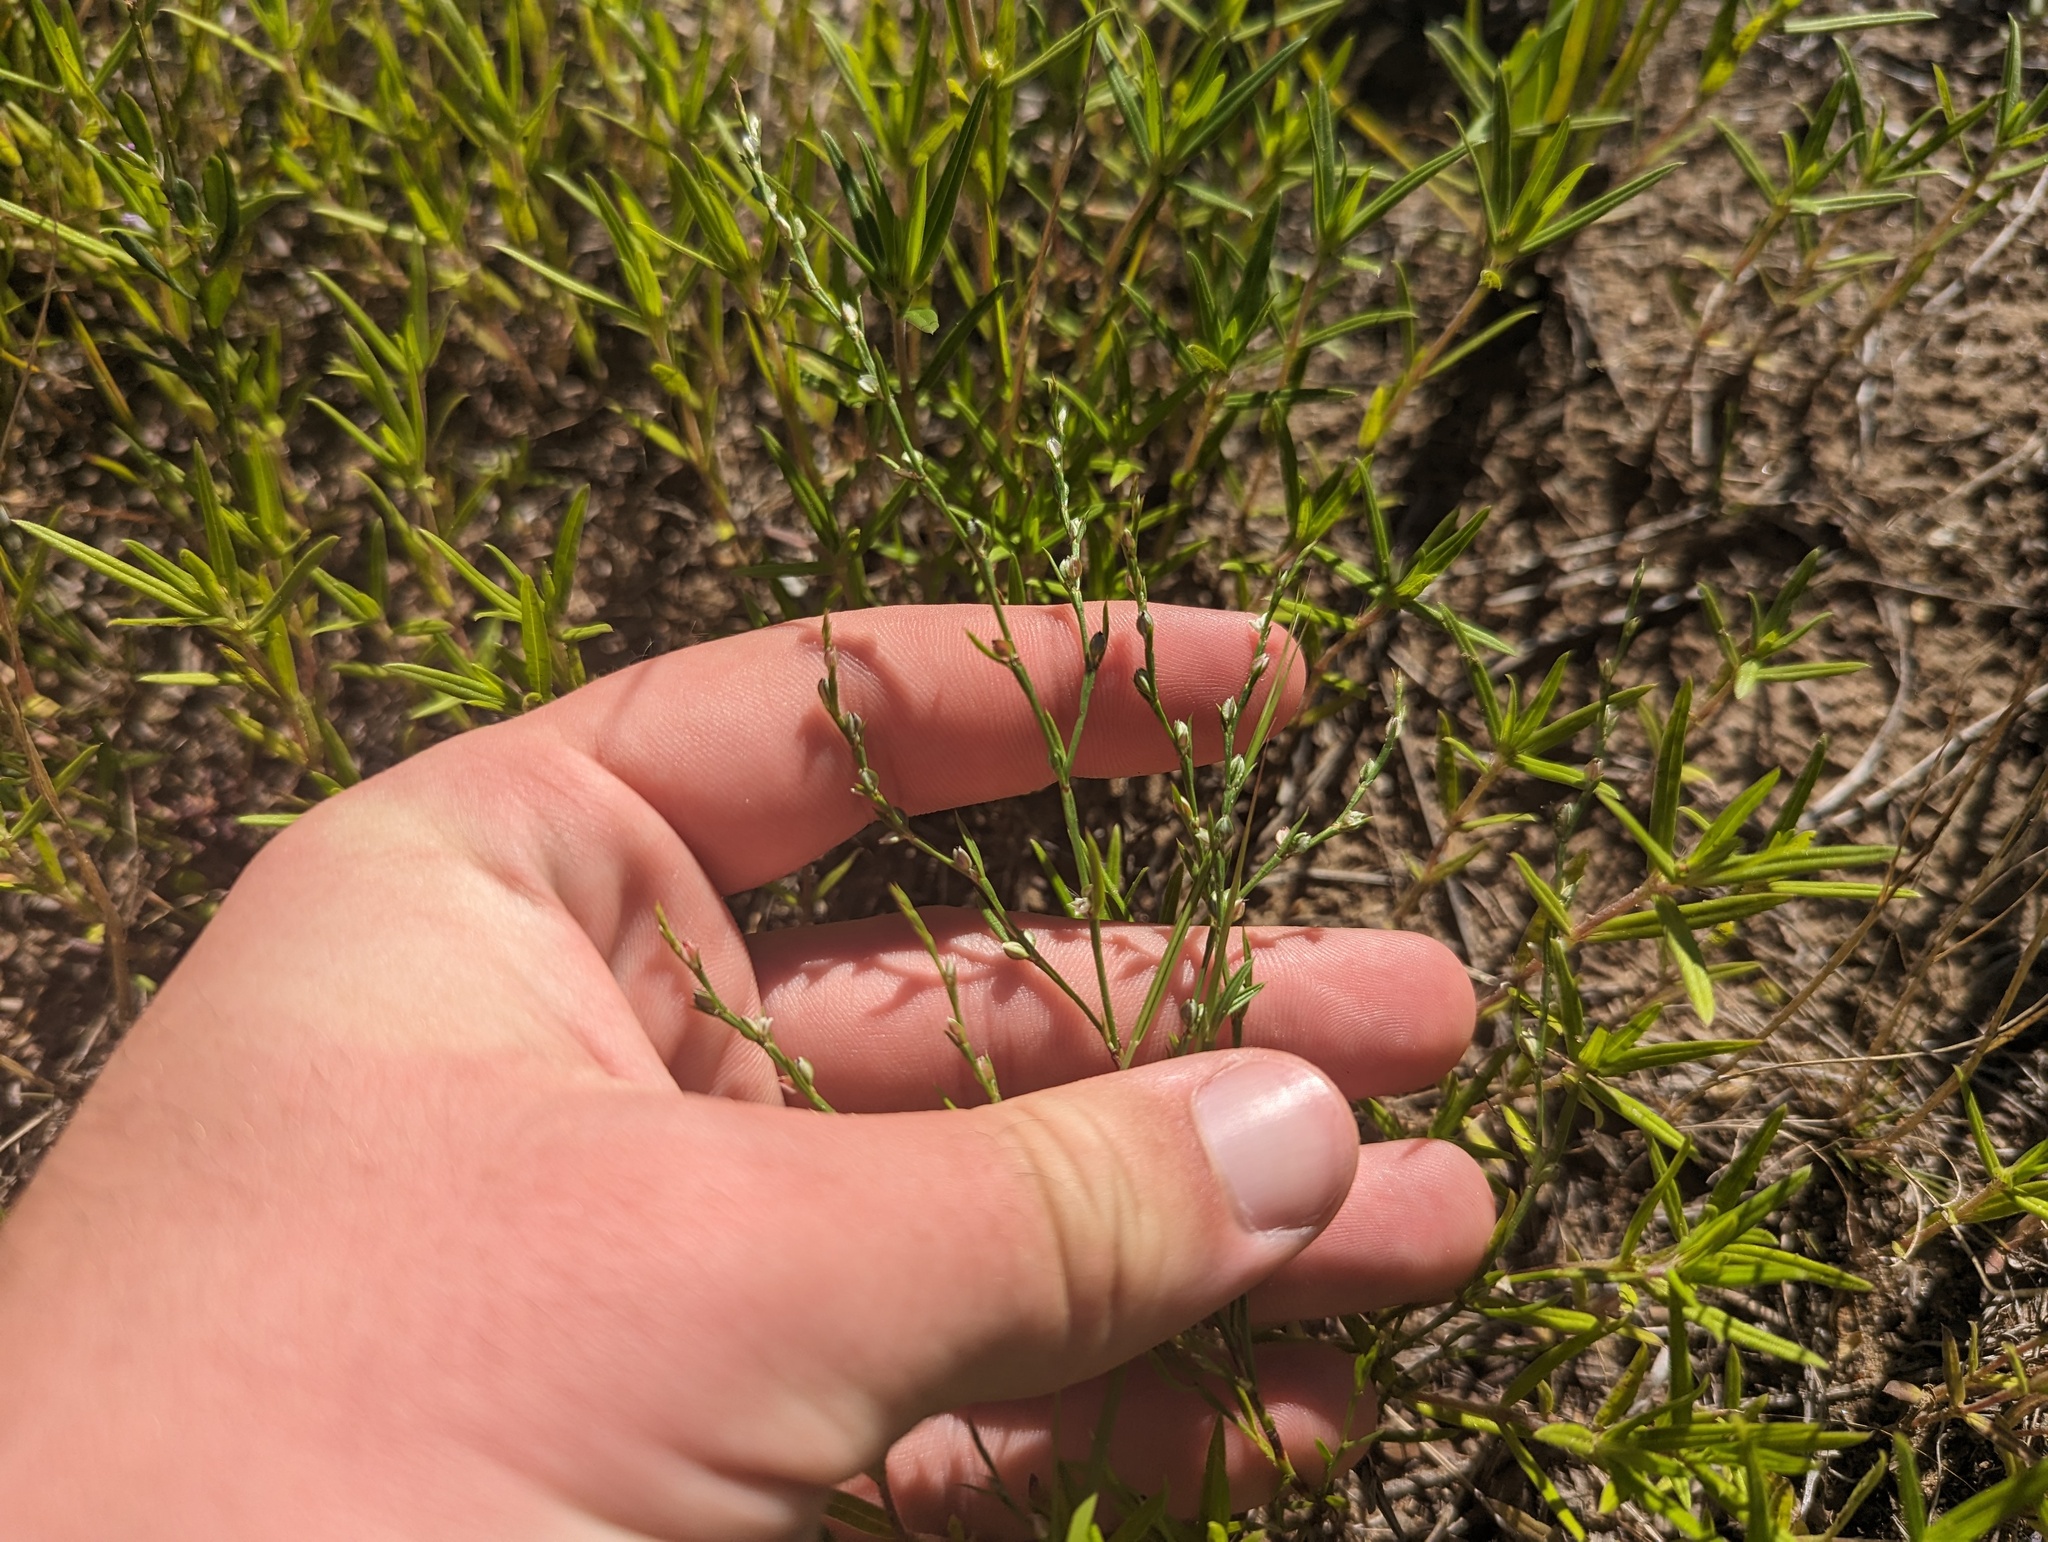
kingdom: Plantae
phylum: Tracheophyta
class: Magnoliopsida
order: Caryophyllales
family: Polygonaceae
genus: Polygonum
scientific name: Polygonum tenue
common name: Pleat-leaved knotweed
